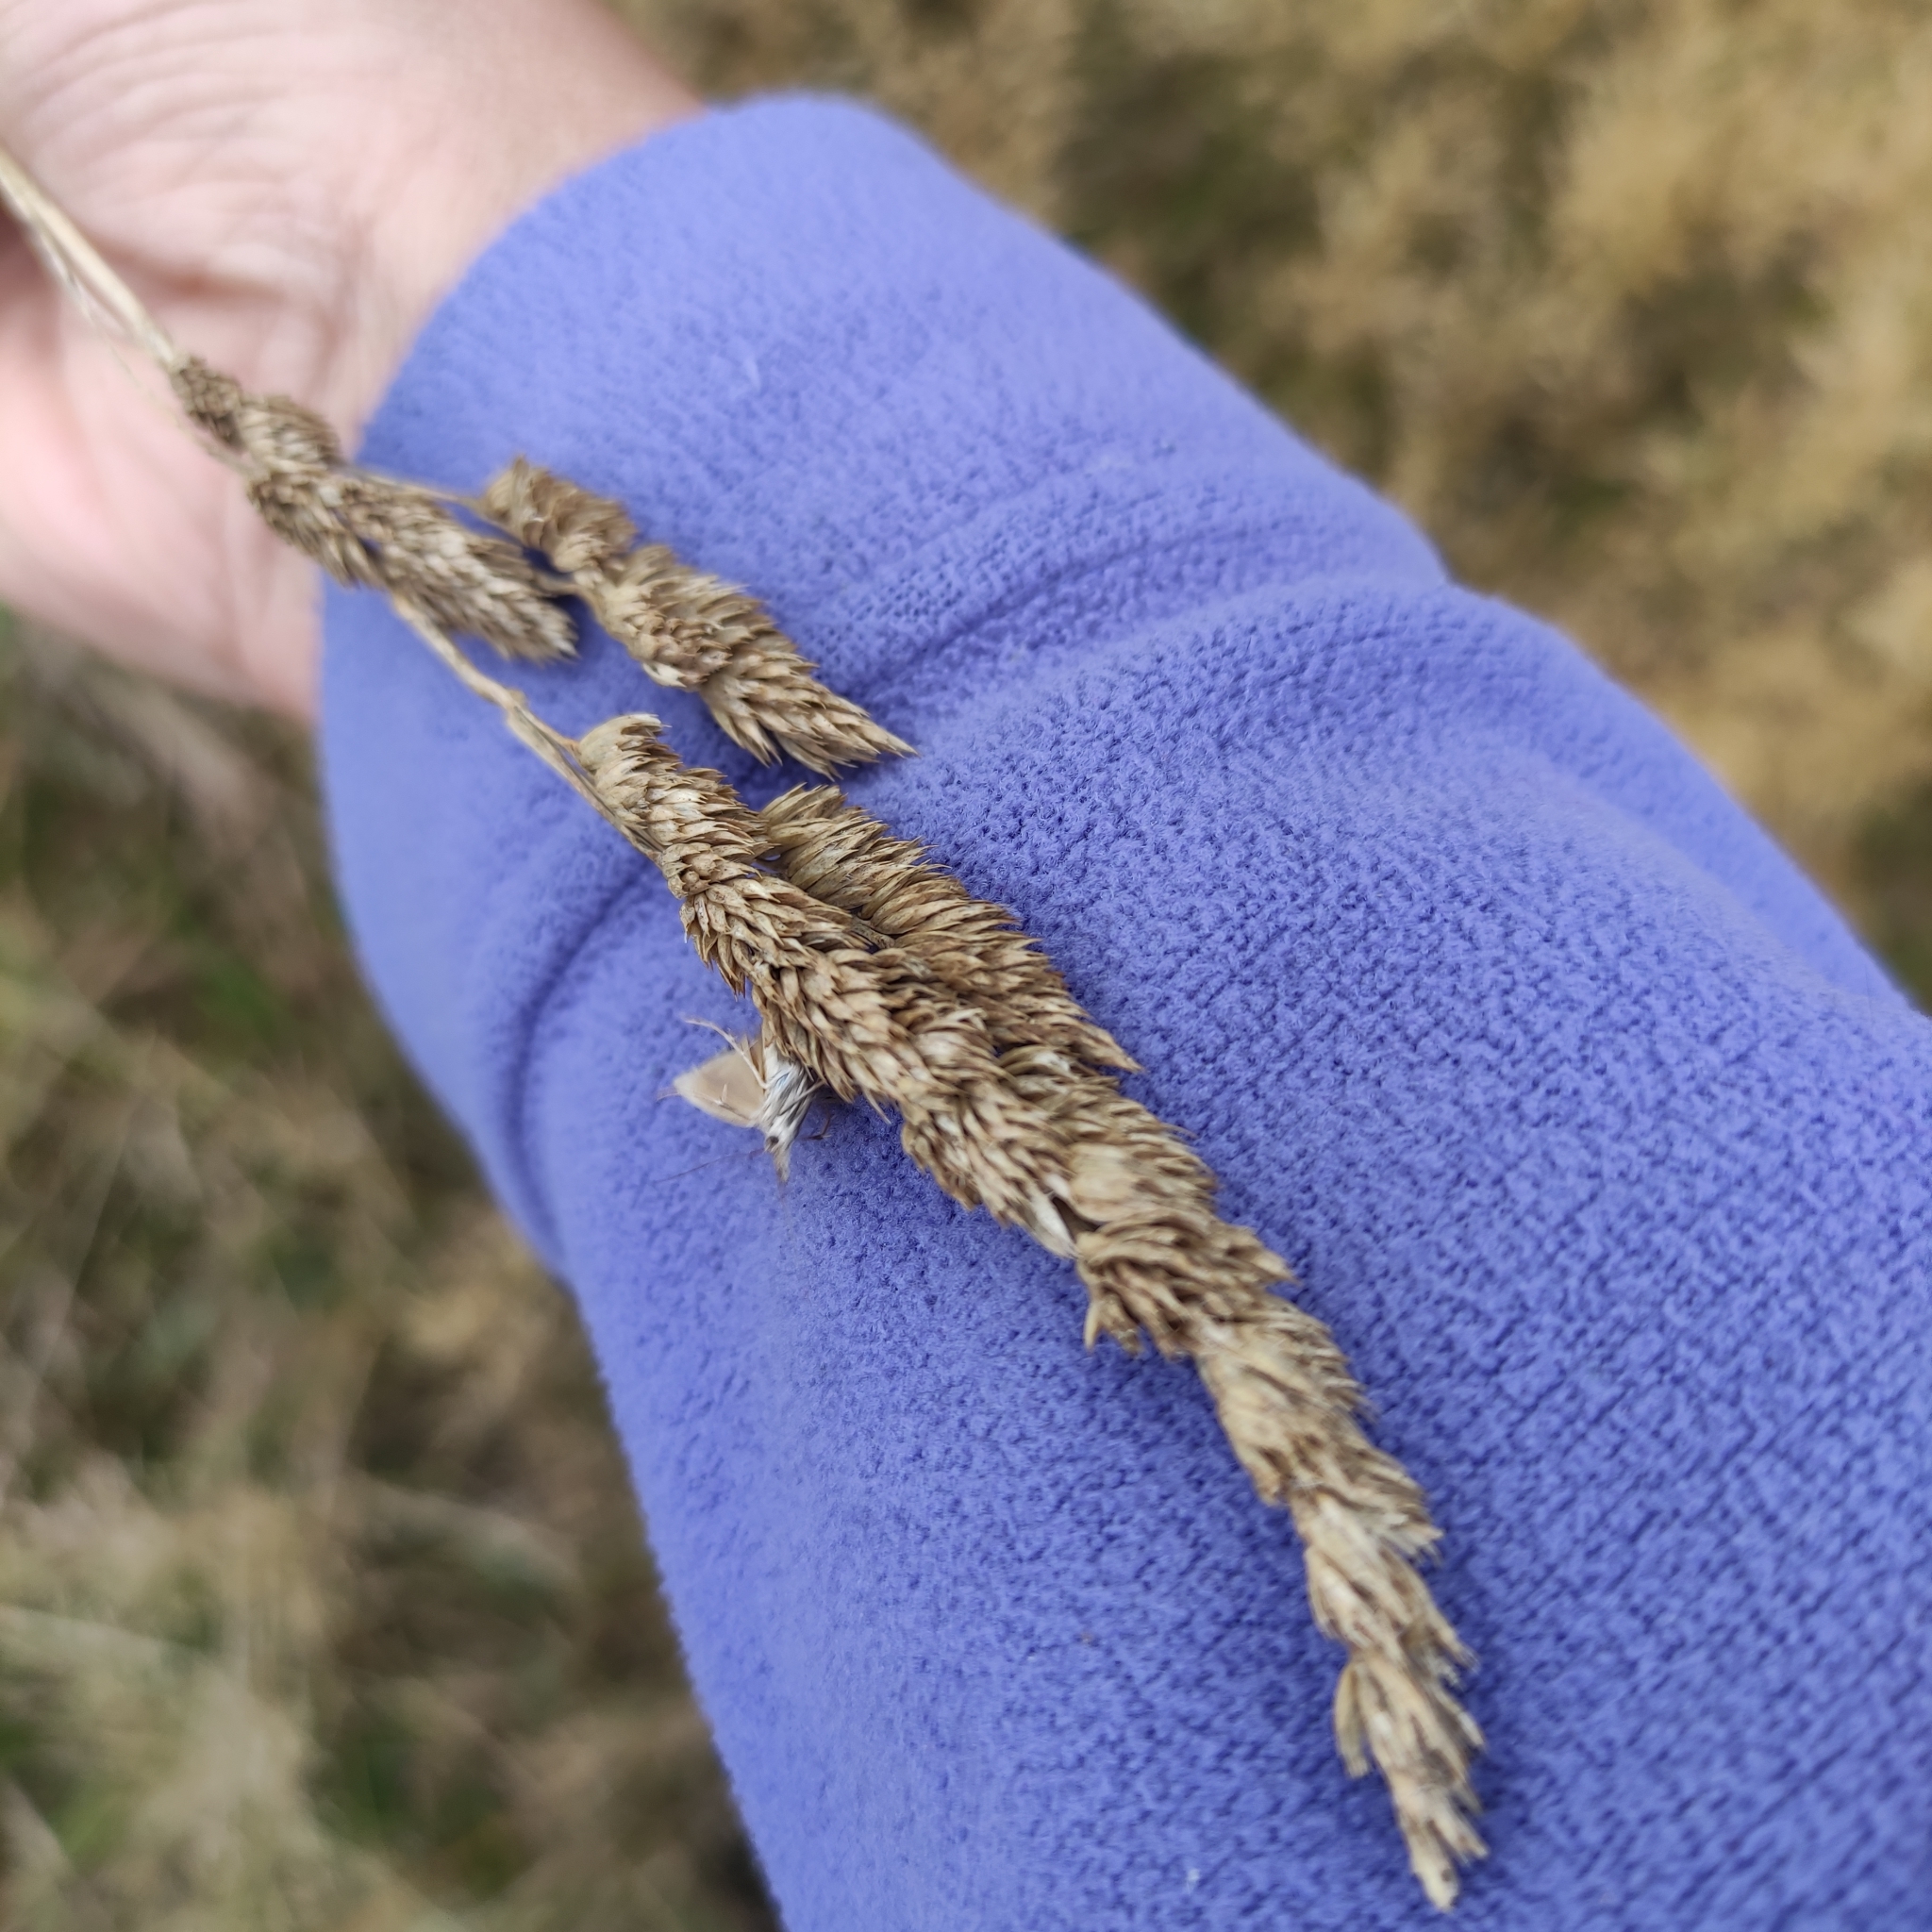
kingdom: Plantae
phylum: Tracheophyta
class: Liliopsida
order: Poales
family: Poaceae
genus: Dactylis
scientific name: Dactylis glomerata
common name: Orchardgrass
